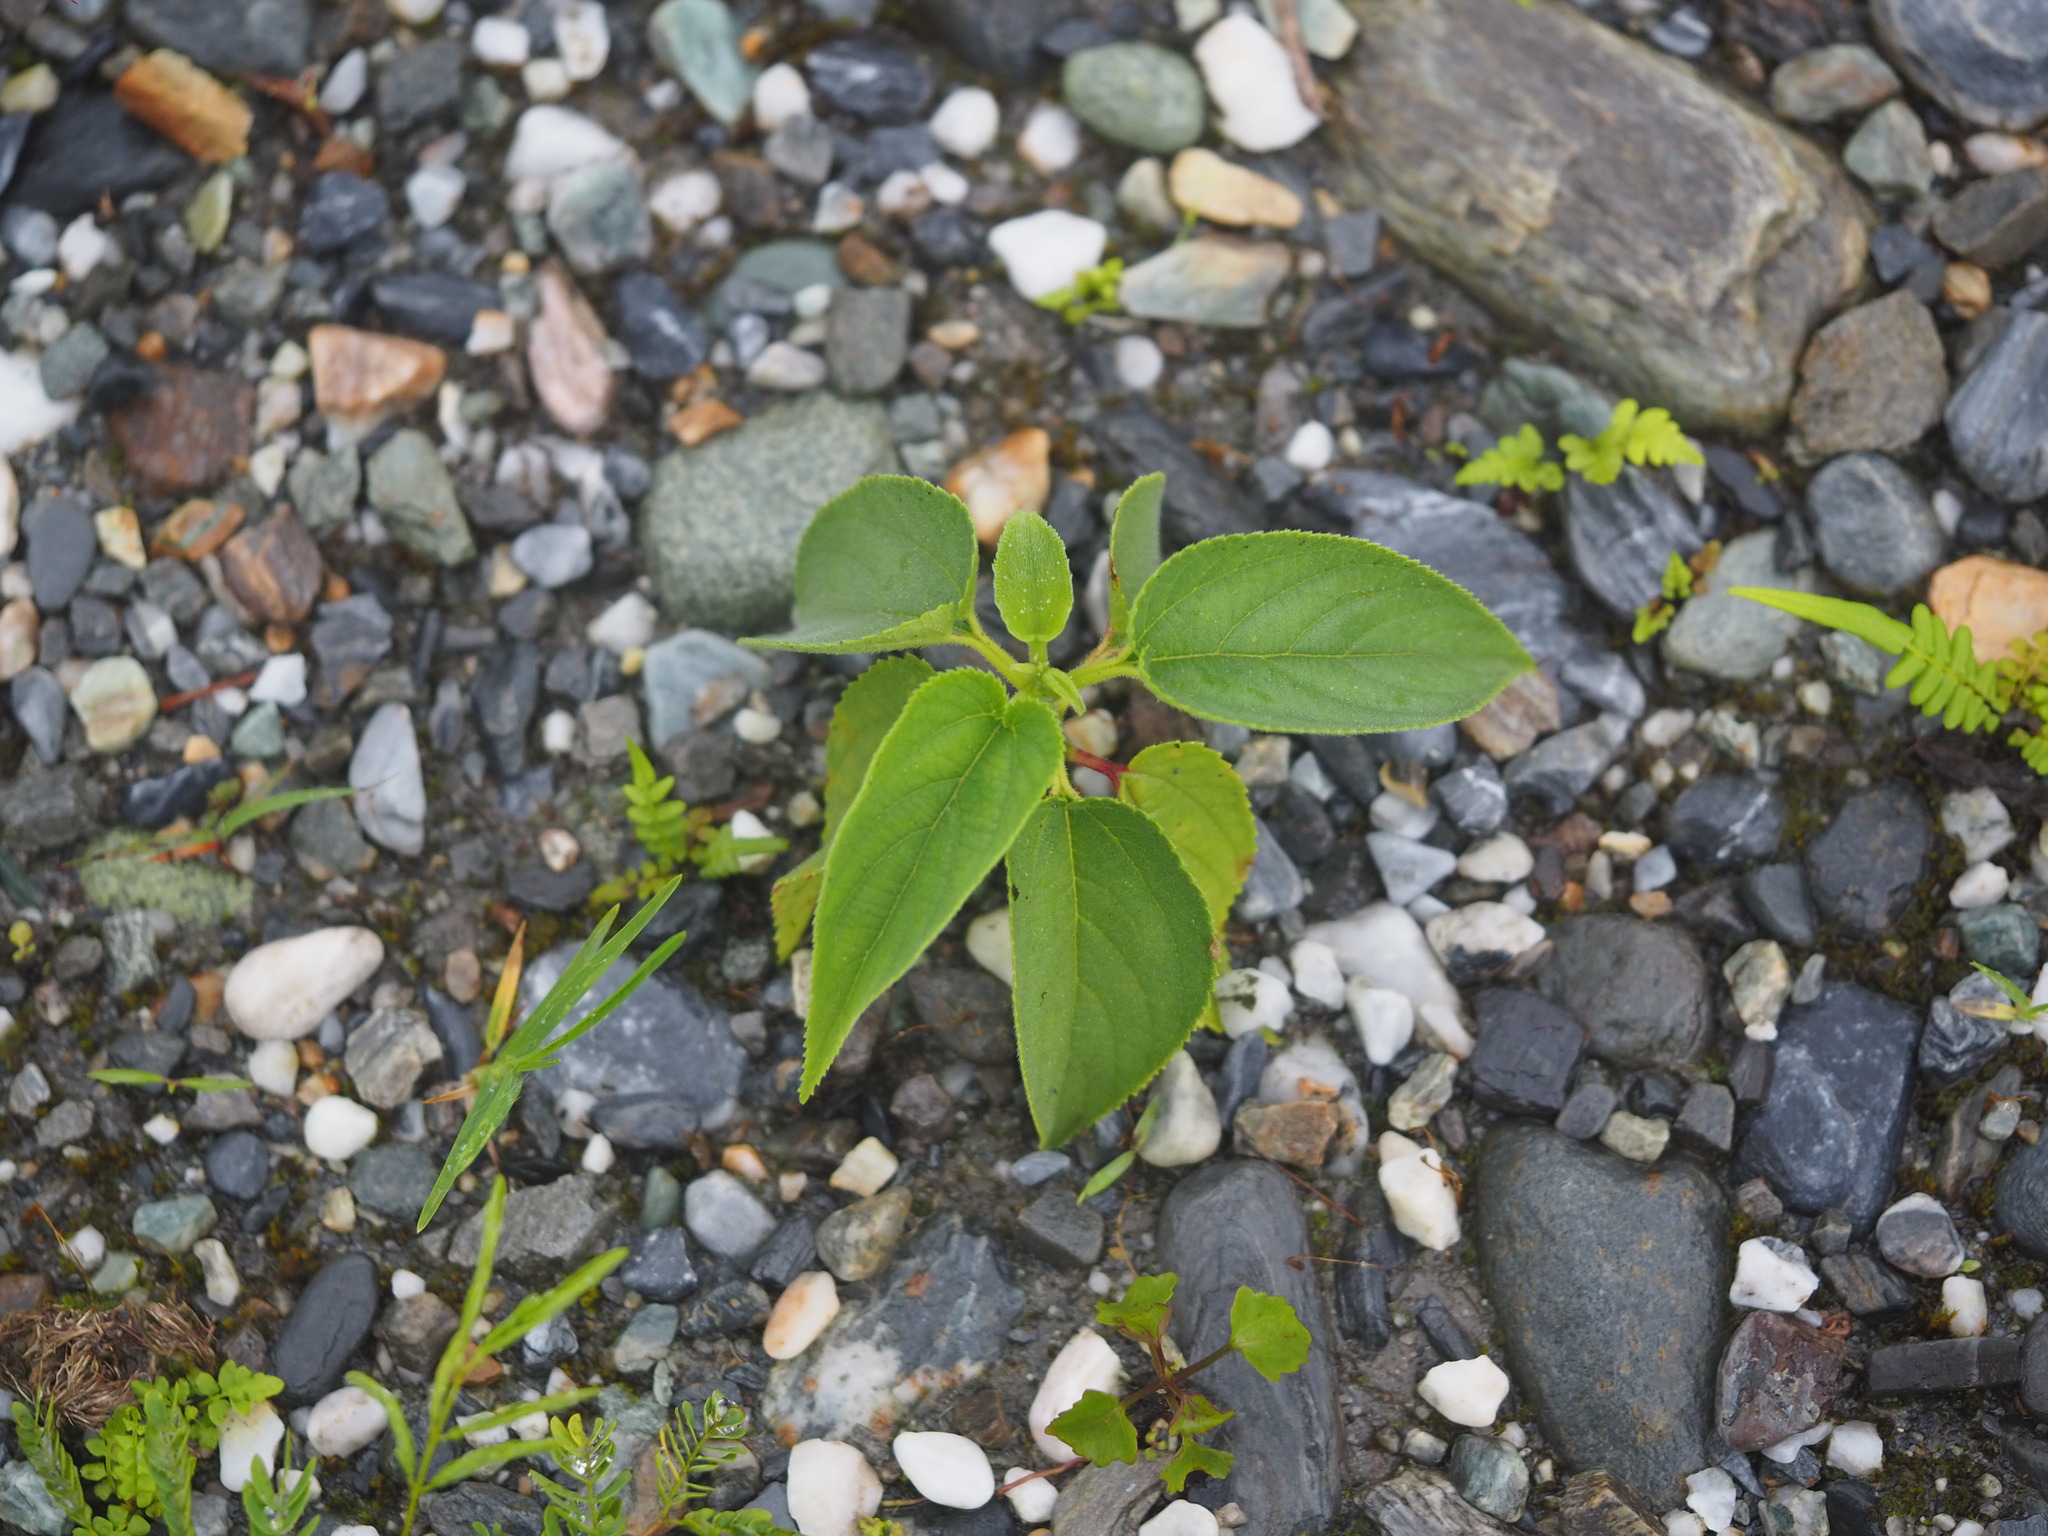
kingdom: Plantae
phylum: Tracheophyta
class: Magnoliopsida
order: Rosales
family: Cannabaceae
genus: Trema
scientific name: Trema tomentosum
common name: Peach-leaf-poisonbush
